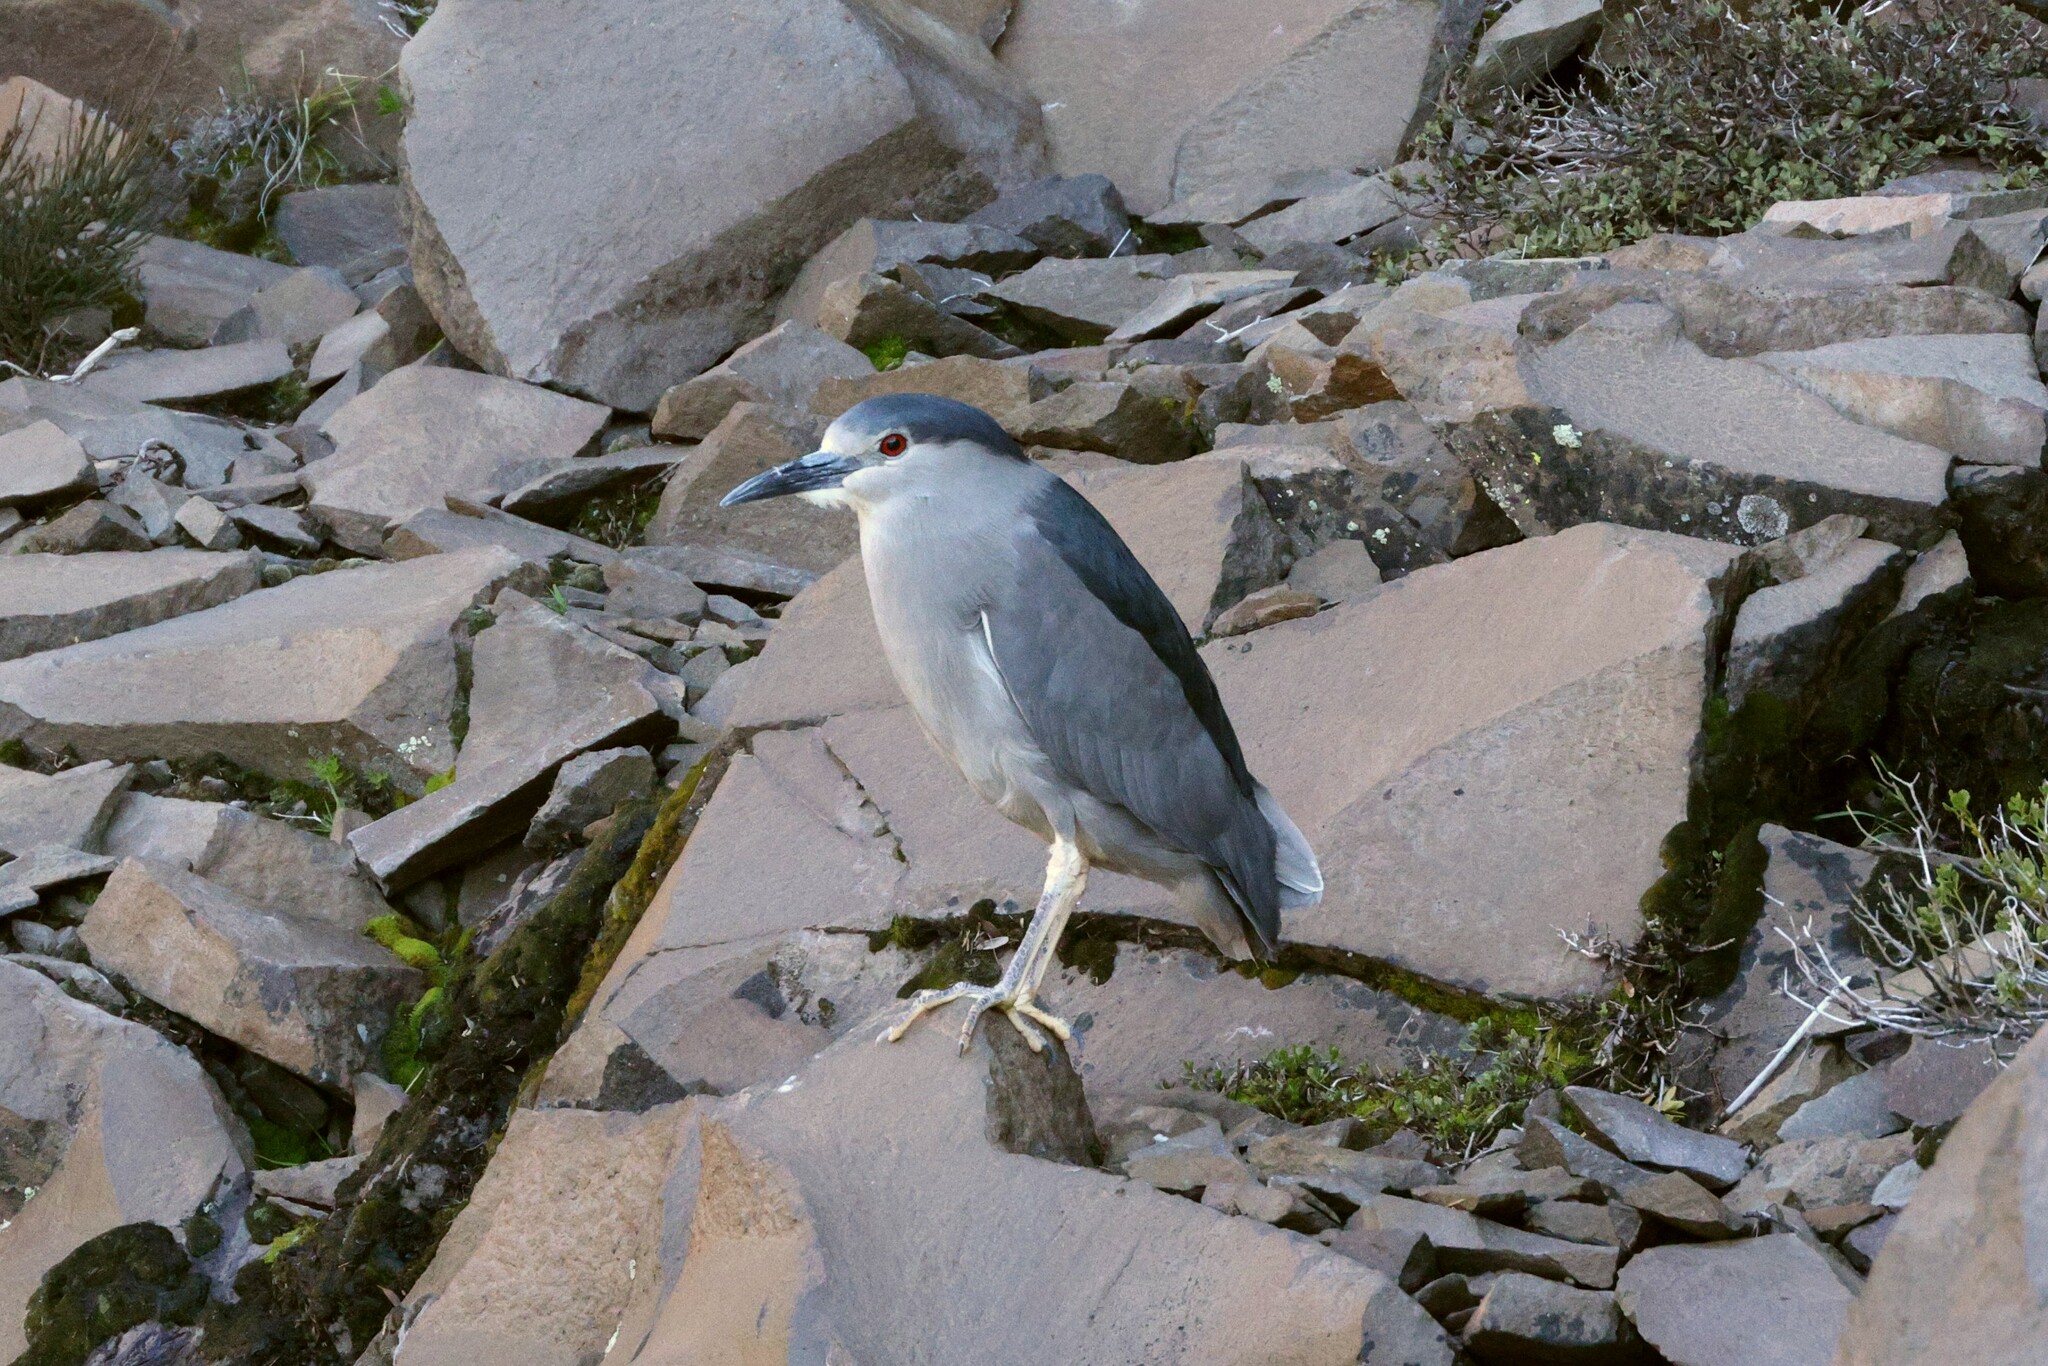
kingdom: Animalia
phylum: Chordata
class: Aves
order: Pelecaniformes
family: Ardeidae
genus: Nycticorax
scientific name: Nycticorax nycticorax
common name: Black-crowned night heron
